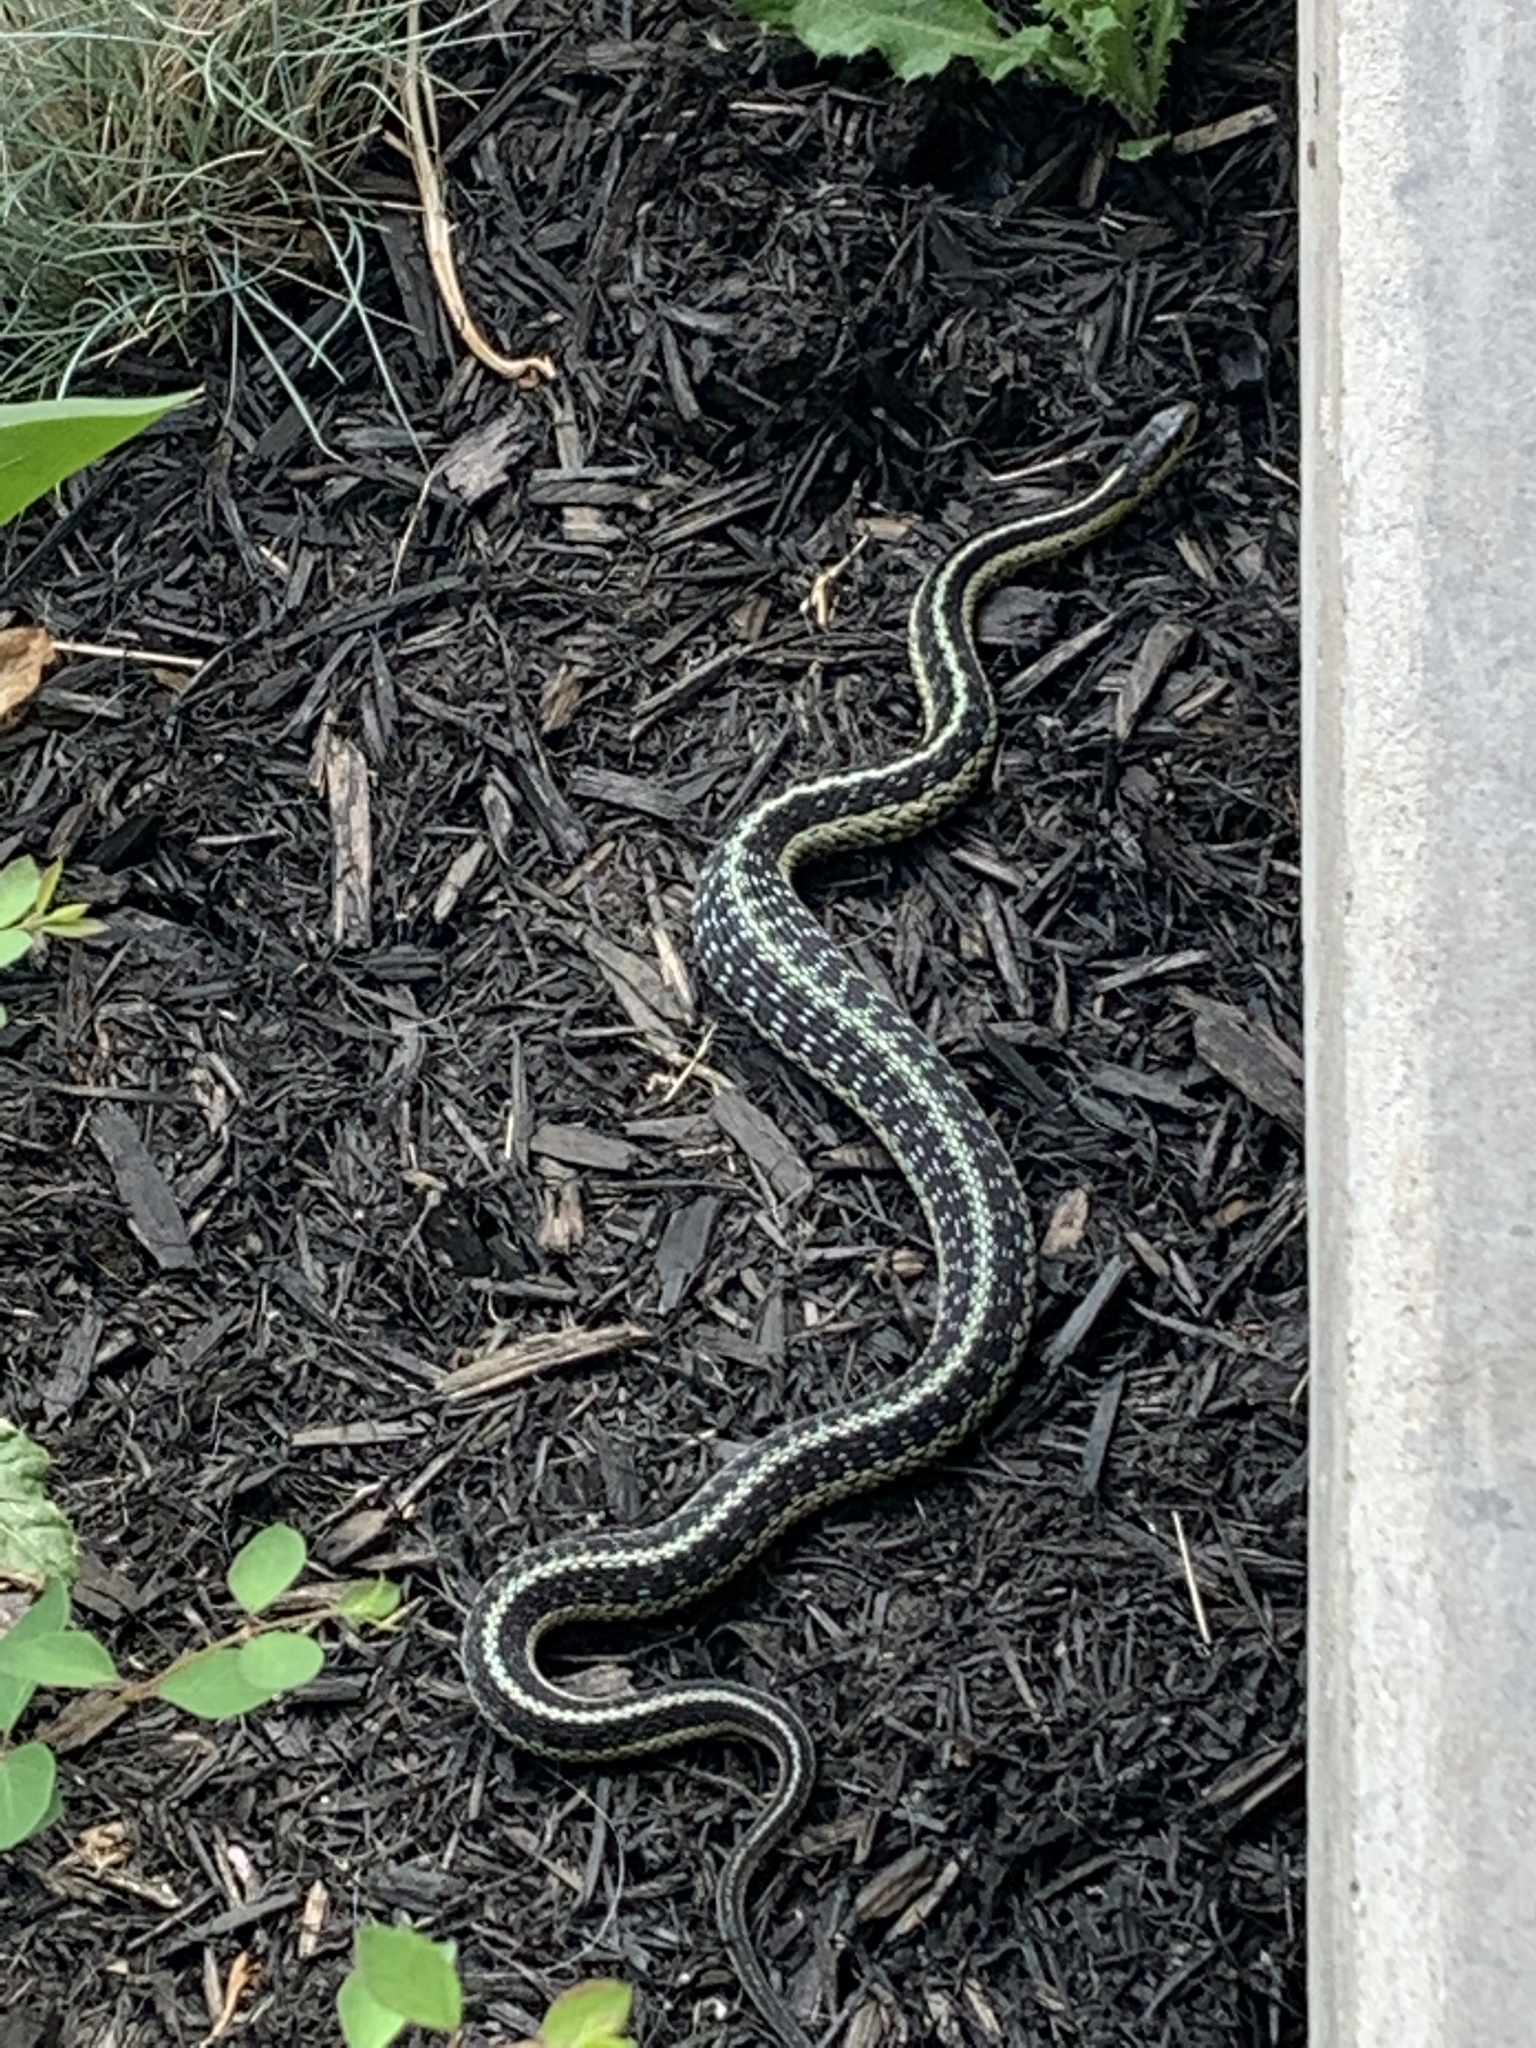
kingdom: Animalia
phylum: Chordata
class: Squamata
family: Colubridae
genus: Thamnophis
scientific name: Thamnophis sirtalis
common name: Common garter snake
